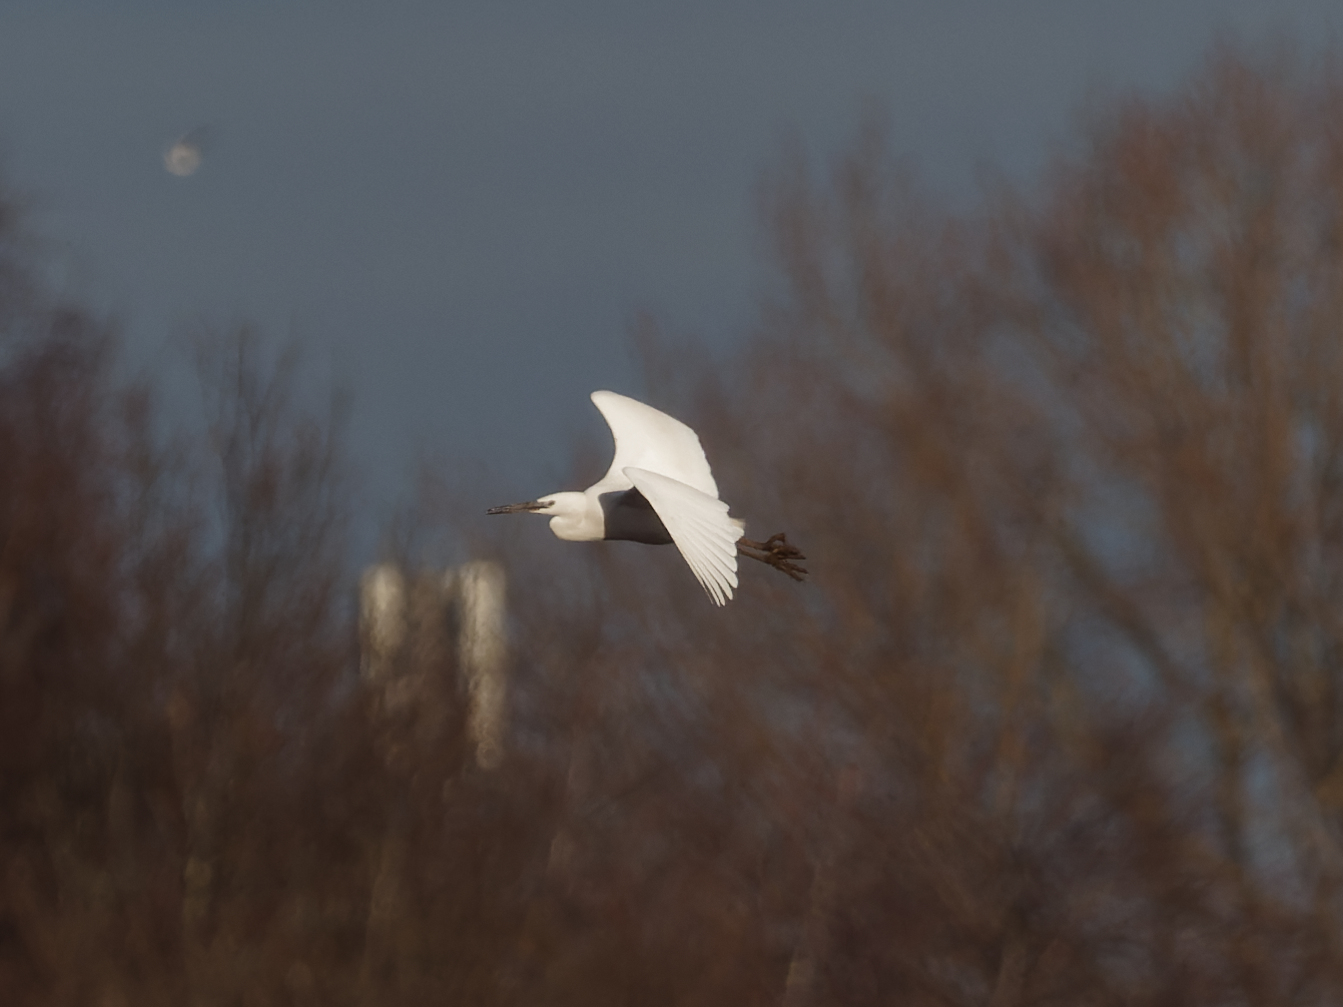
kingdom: Animalia
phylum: Chordata
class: Aves
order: Pelecaniformes
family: Ardeidae
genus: Egretta
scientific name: Egretta garzetta
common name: Little egret
